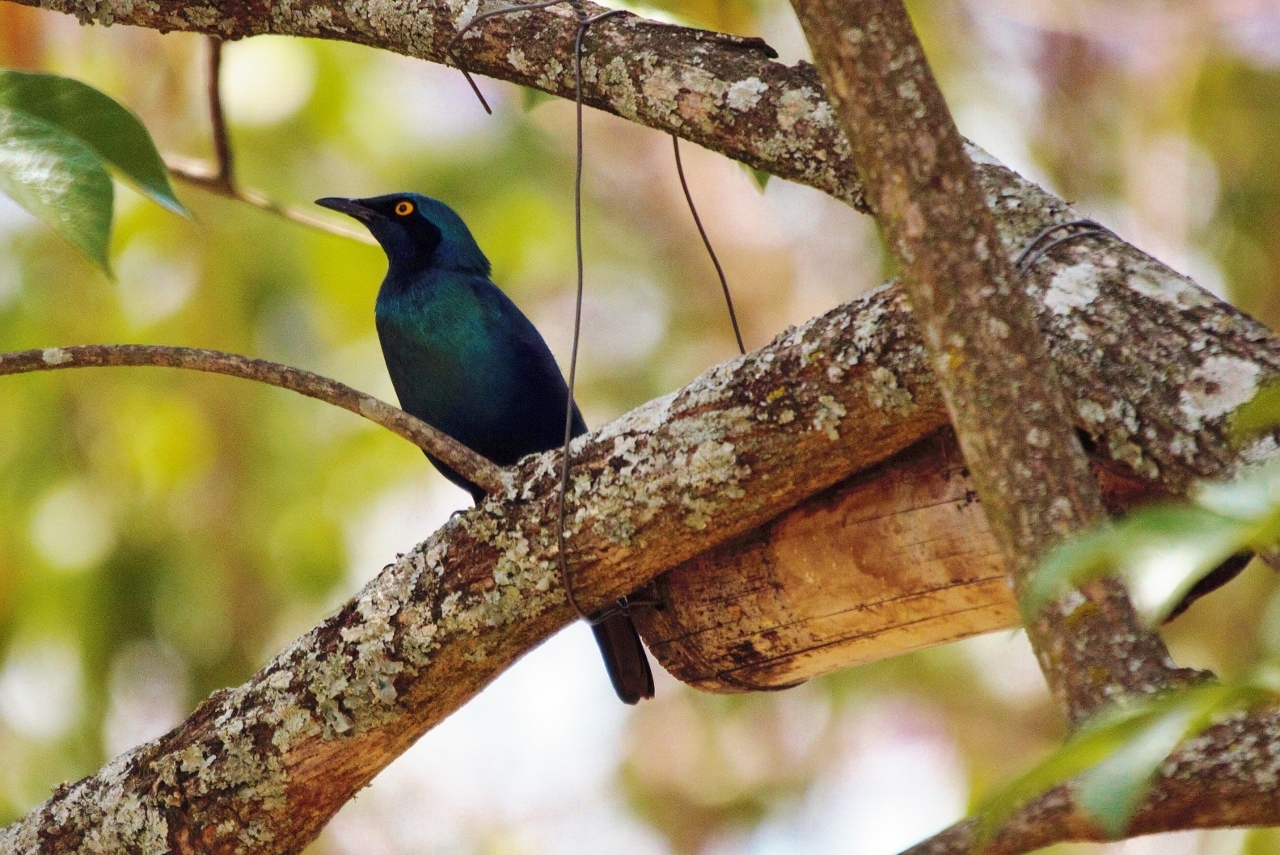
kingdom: Animalia
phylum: Chordata
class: Aves
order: Passeriformes
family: Sturnidae
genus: Lamprotornis
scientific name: Lamprotornis chalybaeus
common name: Greater blue-eared starling
